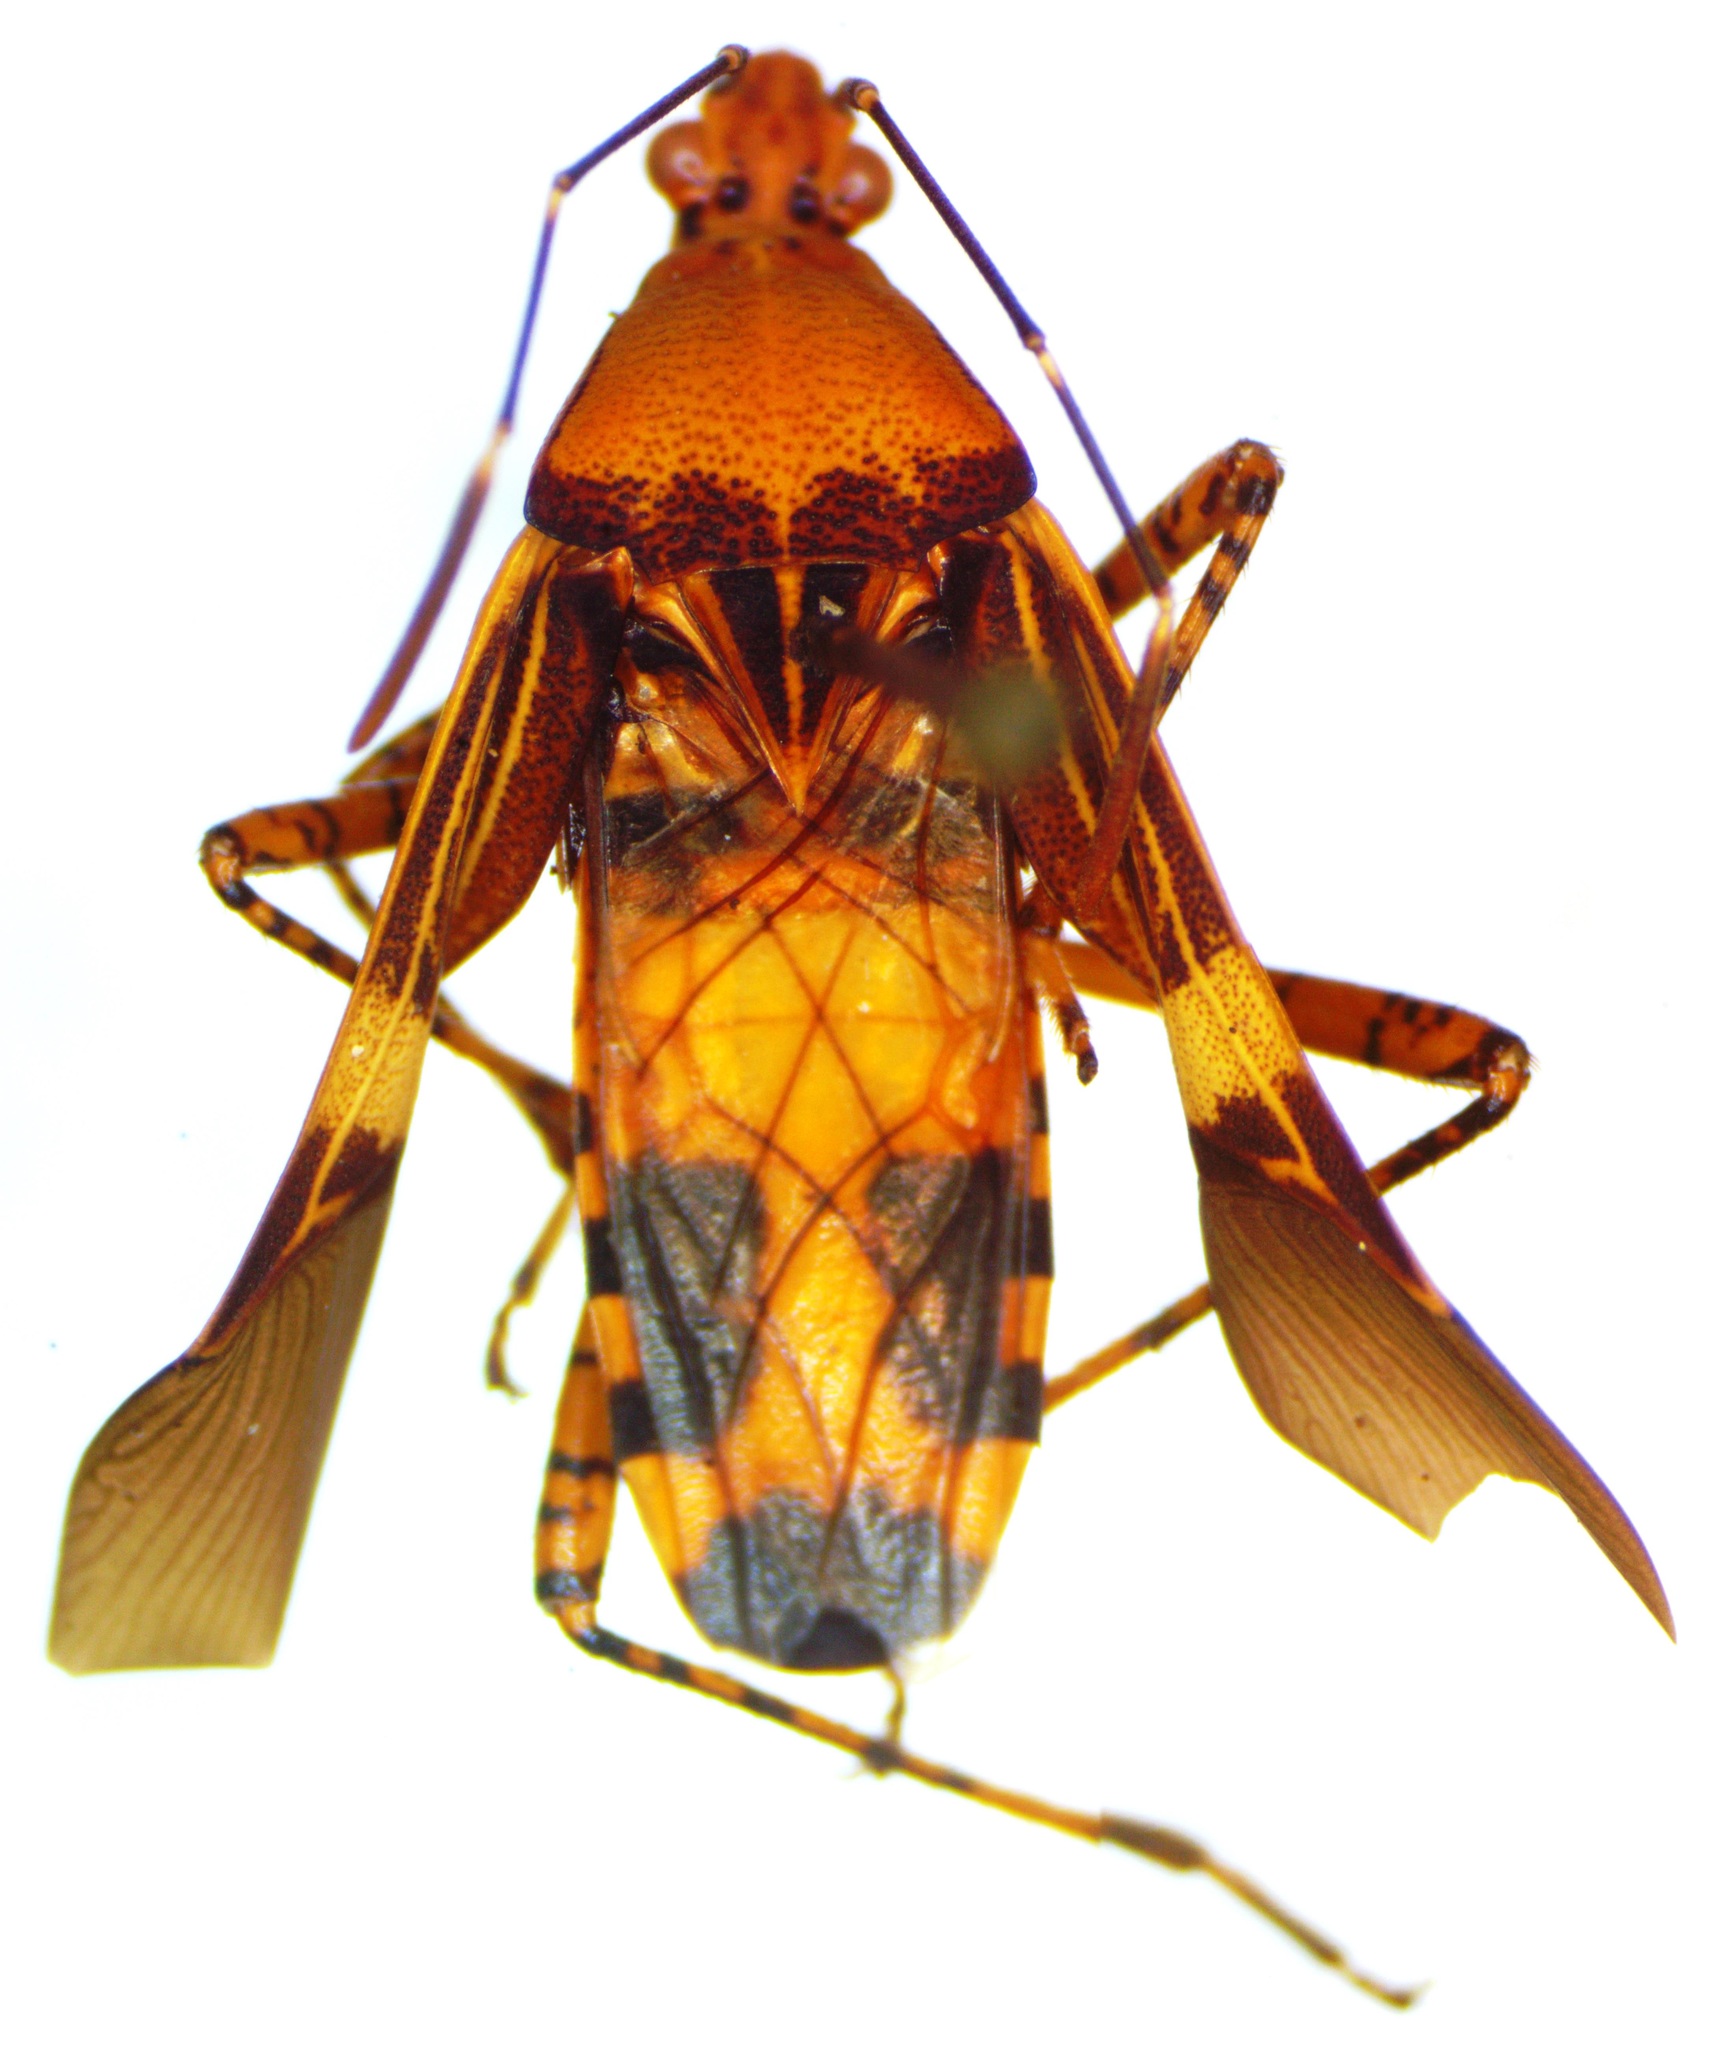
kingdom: Animalia
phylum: Arthropoda
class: Insecta
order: Hemiptera
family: Coreidae
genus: Hypselonotus
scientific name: Hypselonotus lineatus
